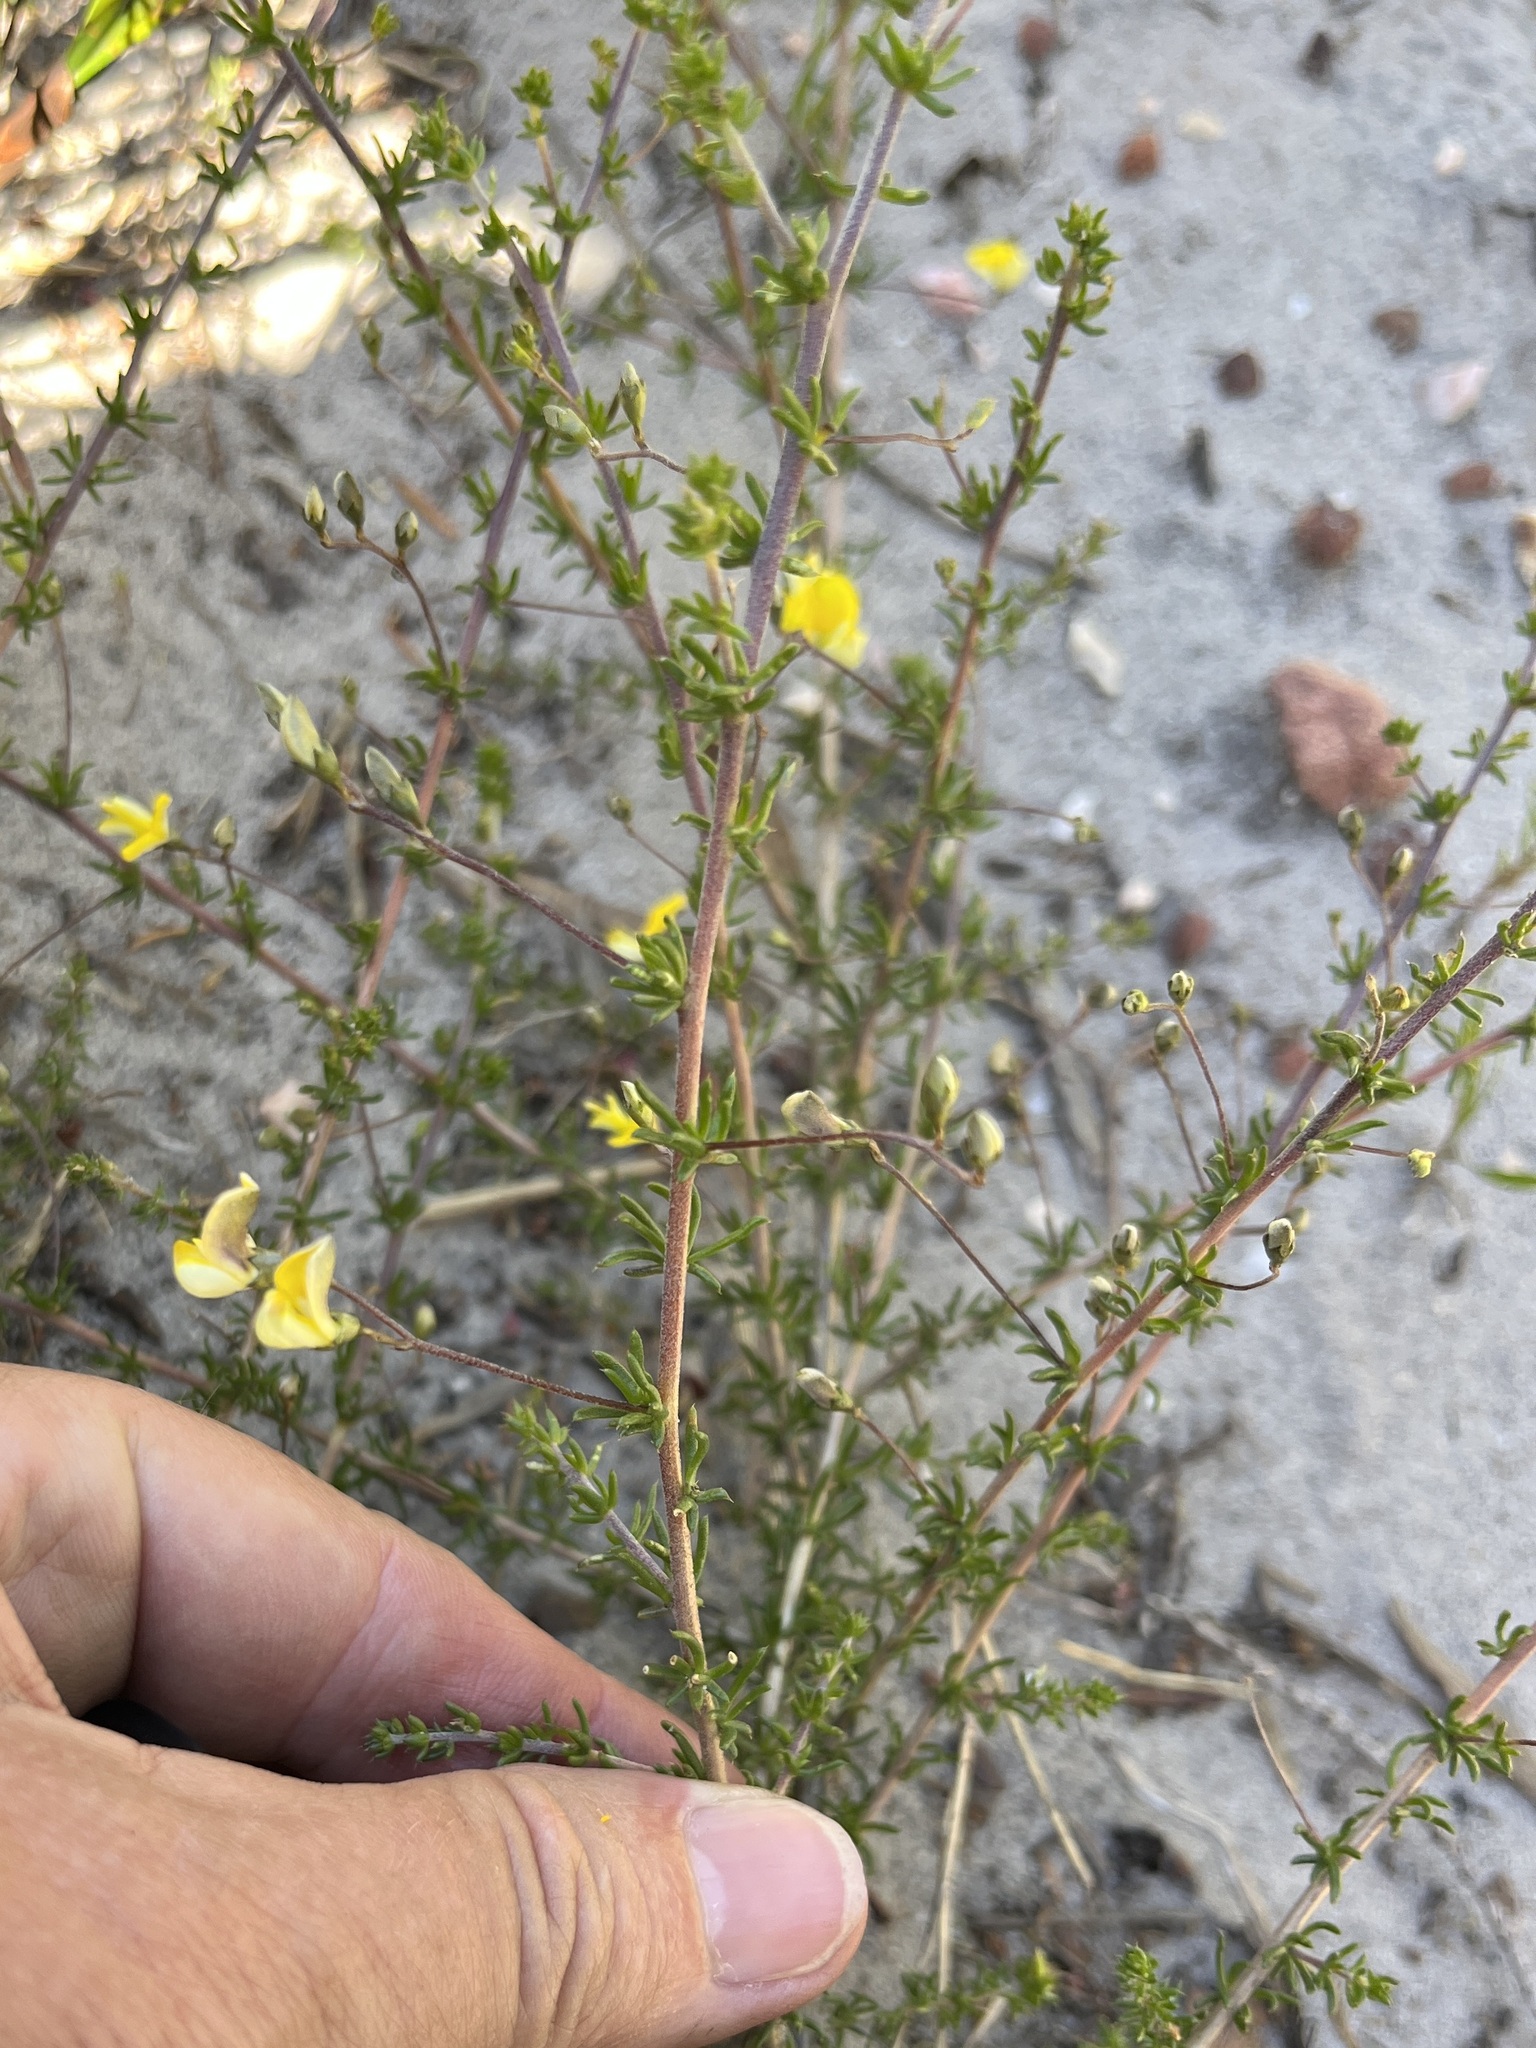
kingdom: Plantae
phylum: Tracheophyta
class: Magnoliopsida
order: Fabales
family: Fabaceae
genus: Aspalathus
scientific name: Aspalathus serpens
